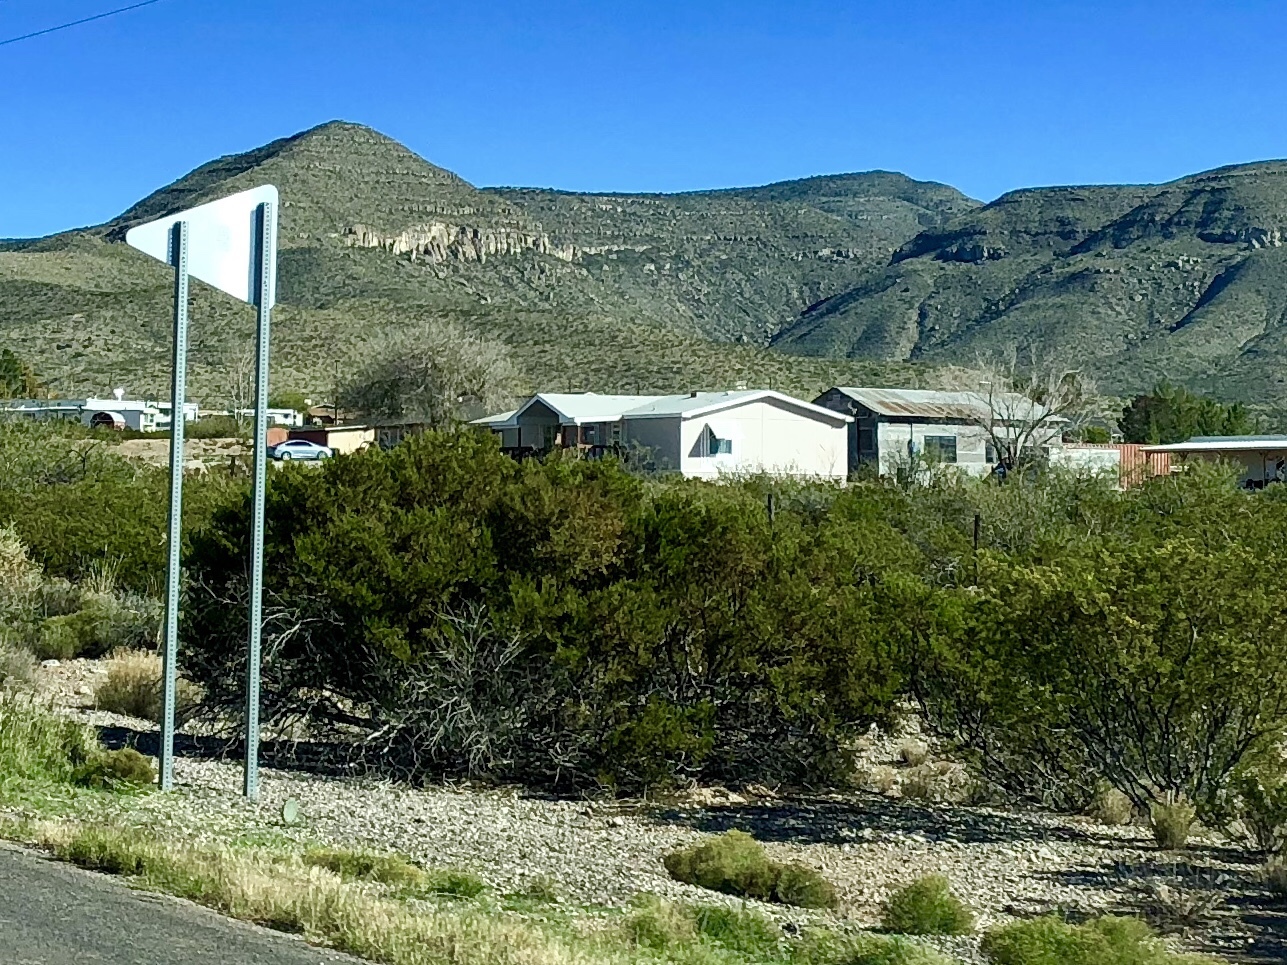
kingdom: Plantae
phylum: Tracheophyta
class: Magnoliopsida
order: Zygophyllales
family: Zygophyllaceae
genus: Larrea
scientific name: Larrea tridentata
